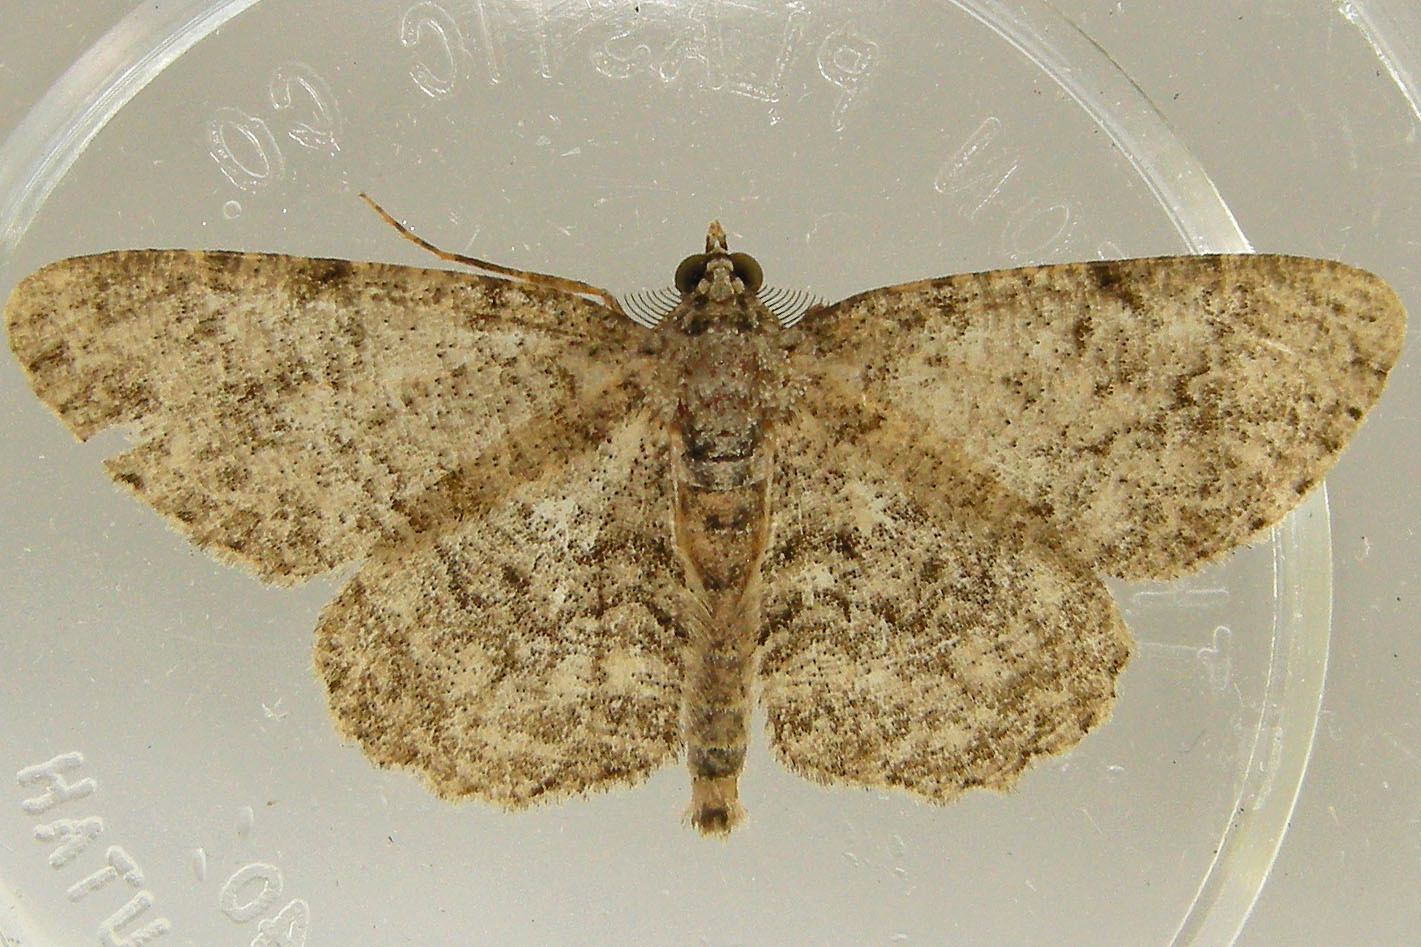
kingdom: Animalia
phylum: Arthropoda
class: Insecta
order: Lepidoptera
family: Geometridae
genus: Protoboarmia
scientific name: Protoboarmia porcelaria
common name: Porcelain gray
